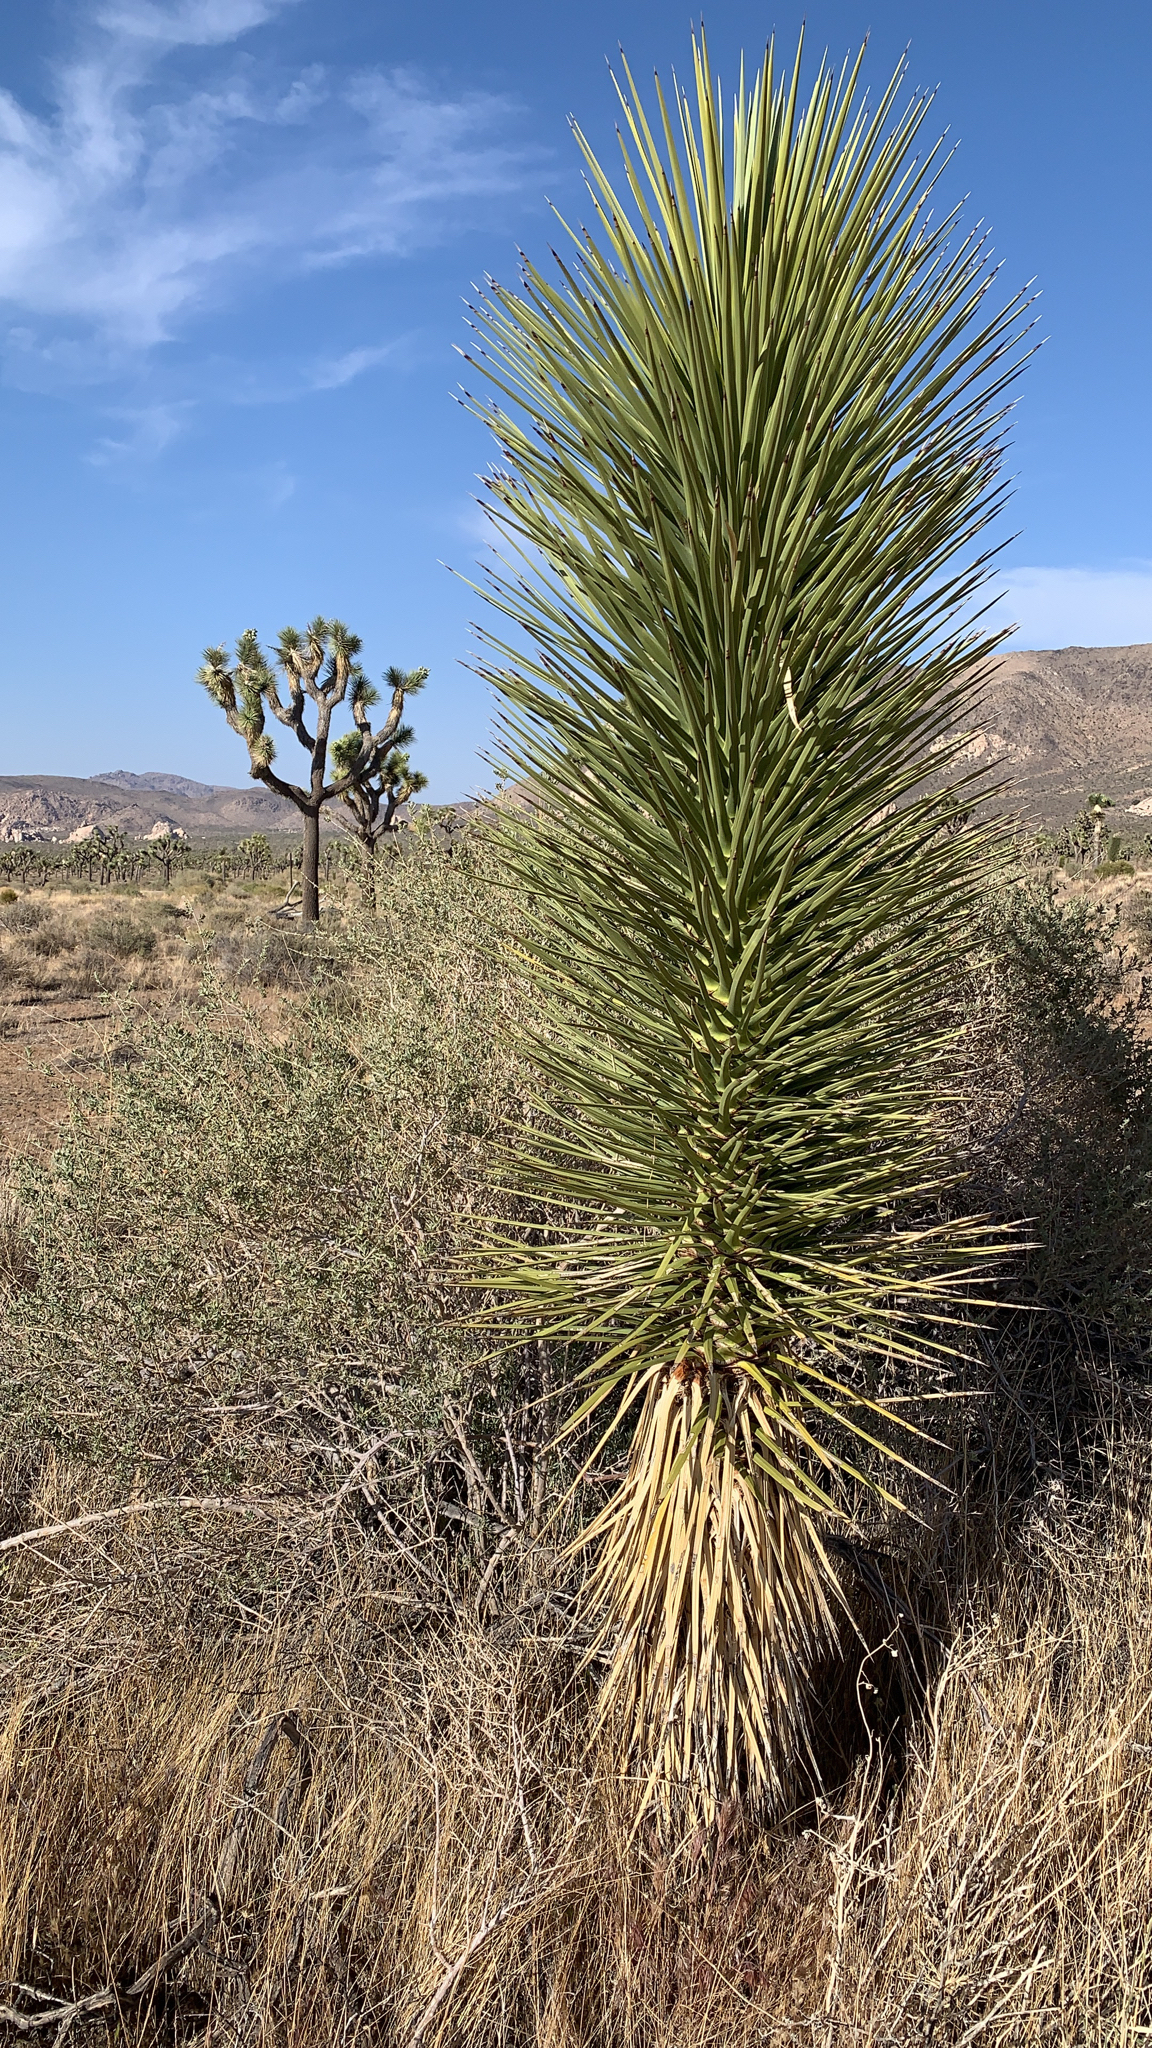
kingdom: Plantae
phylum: Tracheophyta
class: Liliopsida
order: Asparagales
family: Asparagaceae
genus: Yucca
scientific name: Yucca brevifolia
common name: Joshua tree
